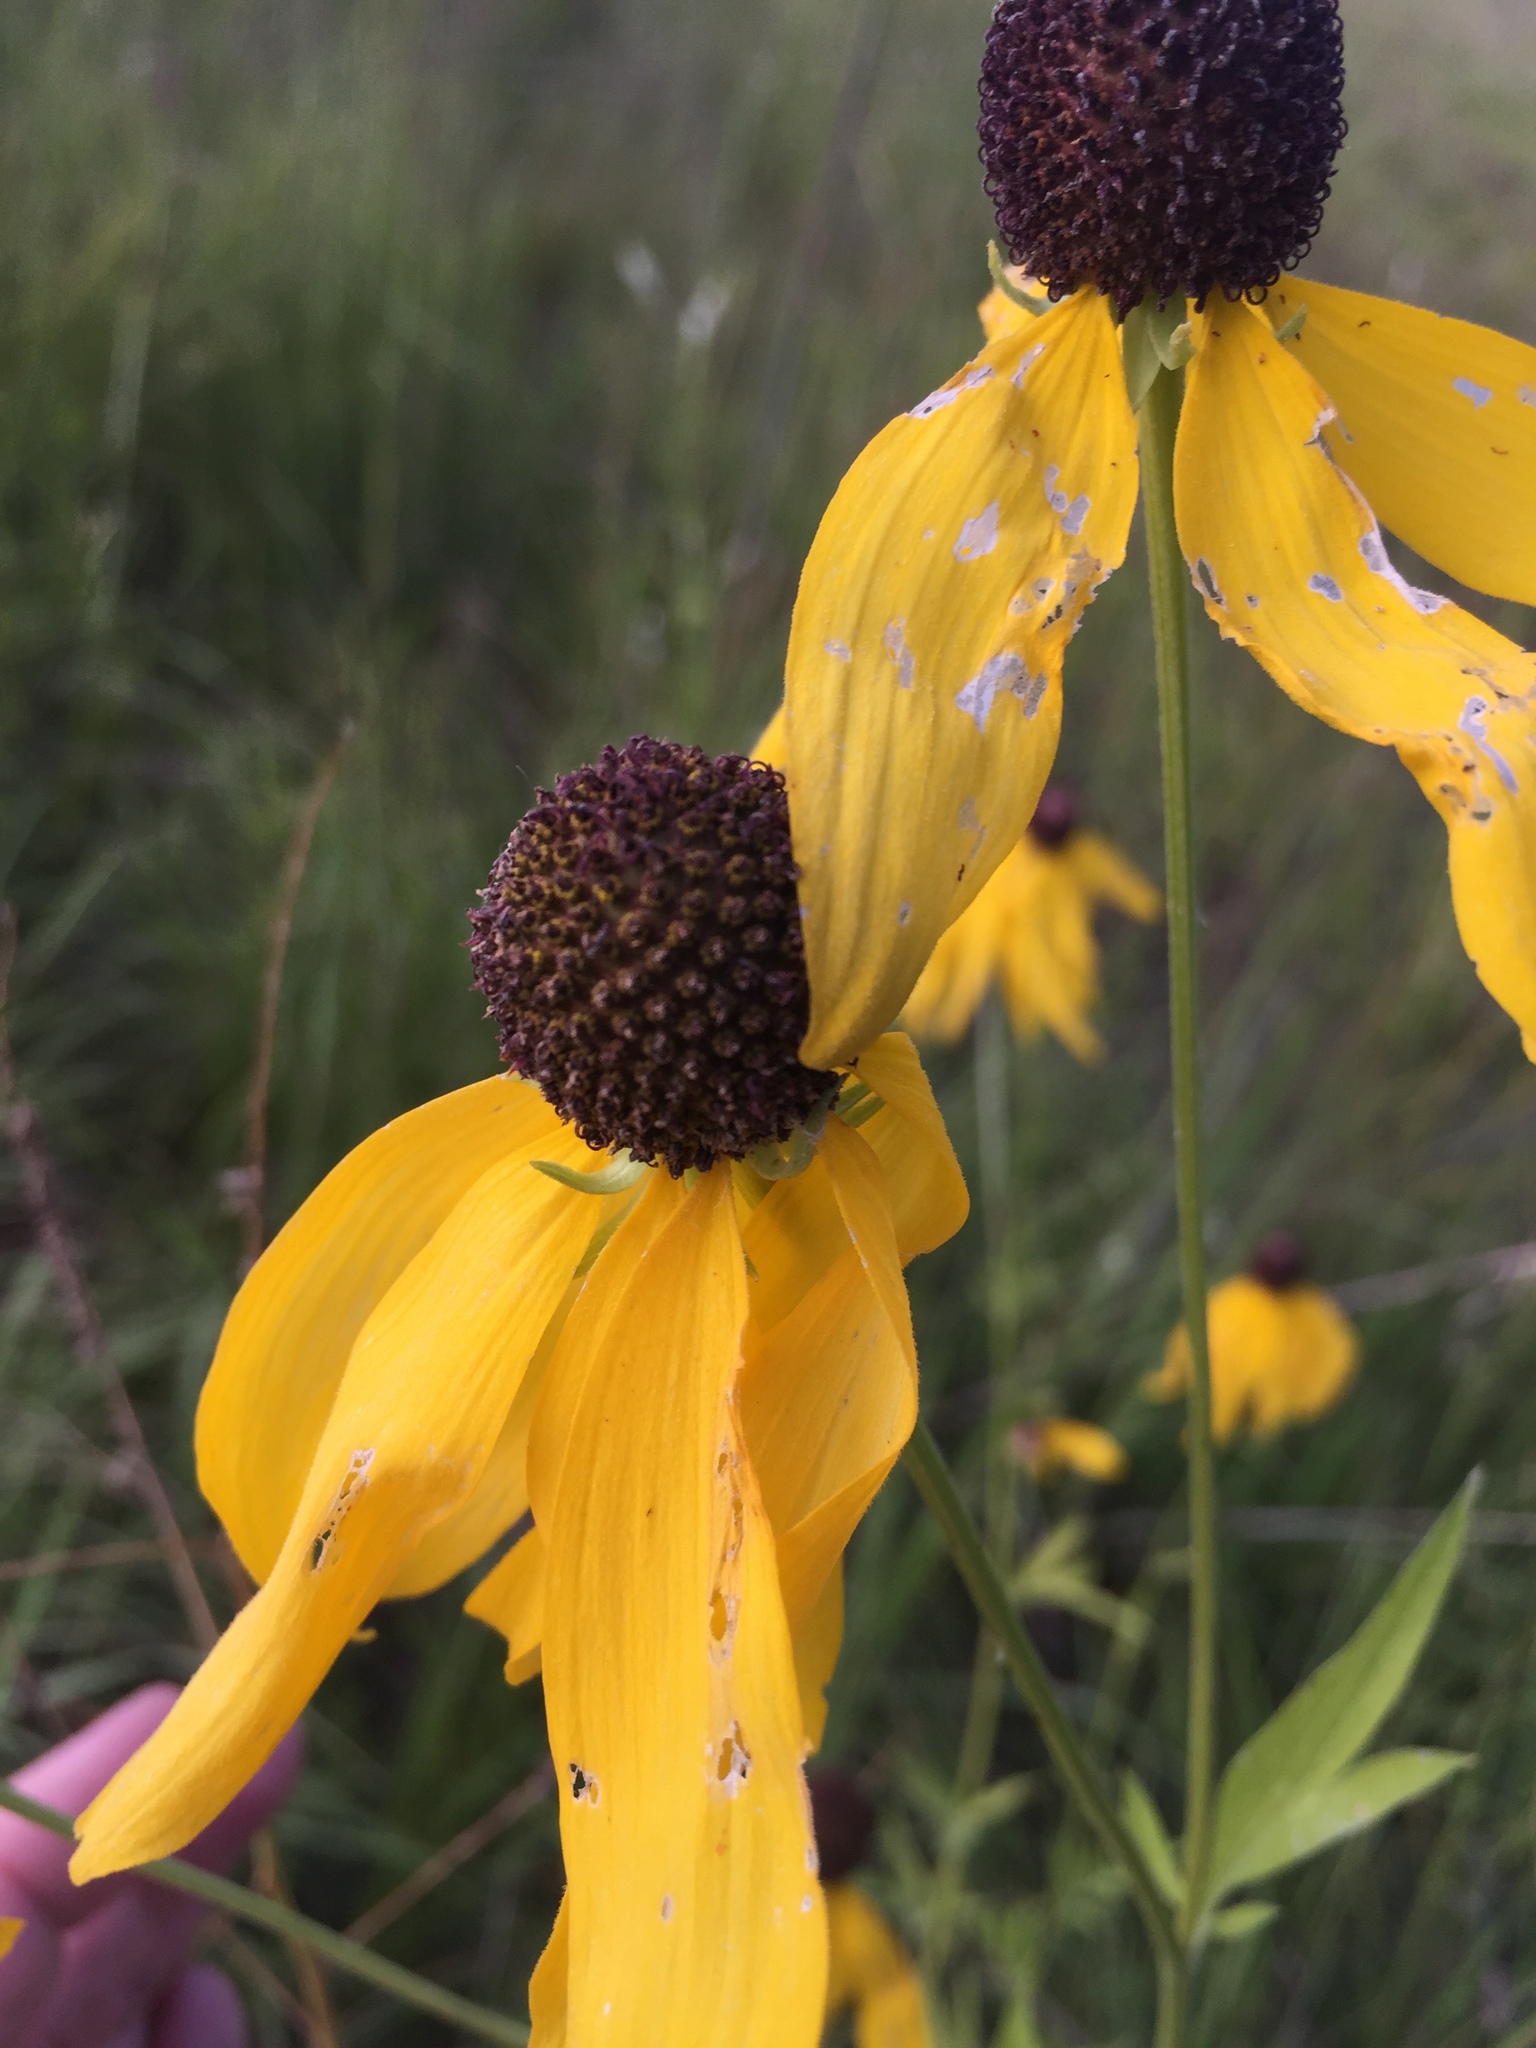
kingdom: Plantae
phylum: Tracheophyta
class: Magnoliopsida
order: Asterales
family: Asteraceae
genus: Ratibida
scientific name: Ratibida pinnata
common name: Drooping prairie-coneflower
